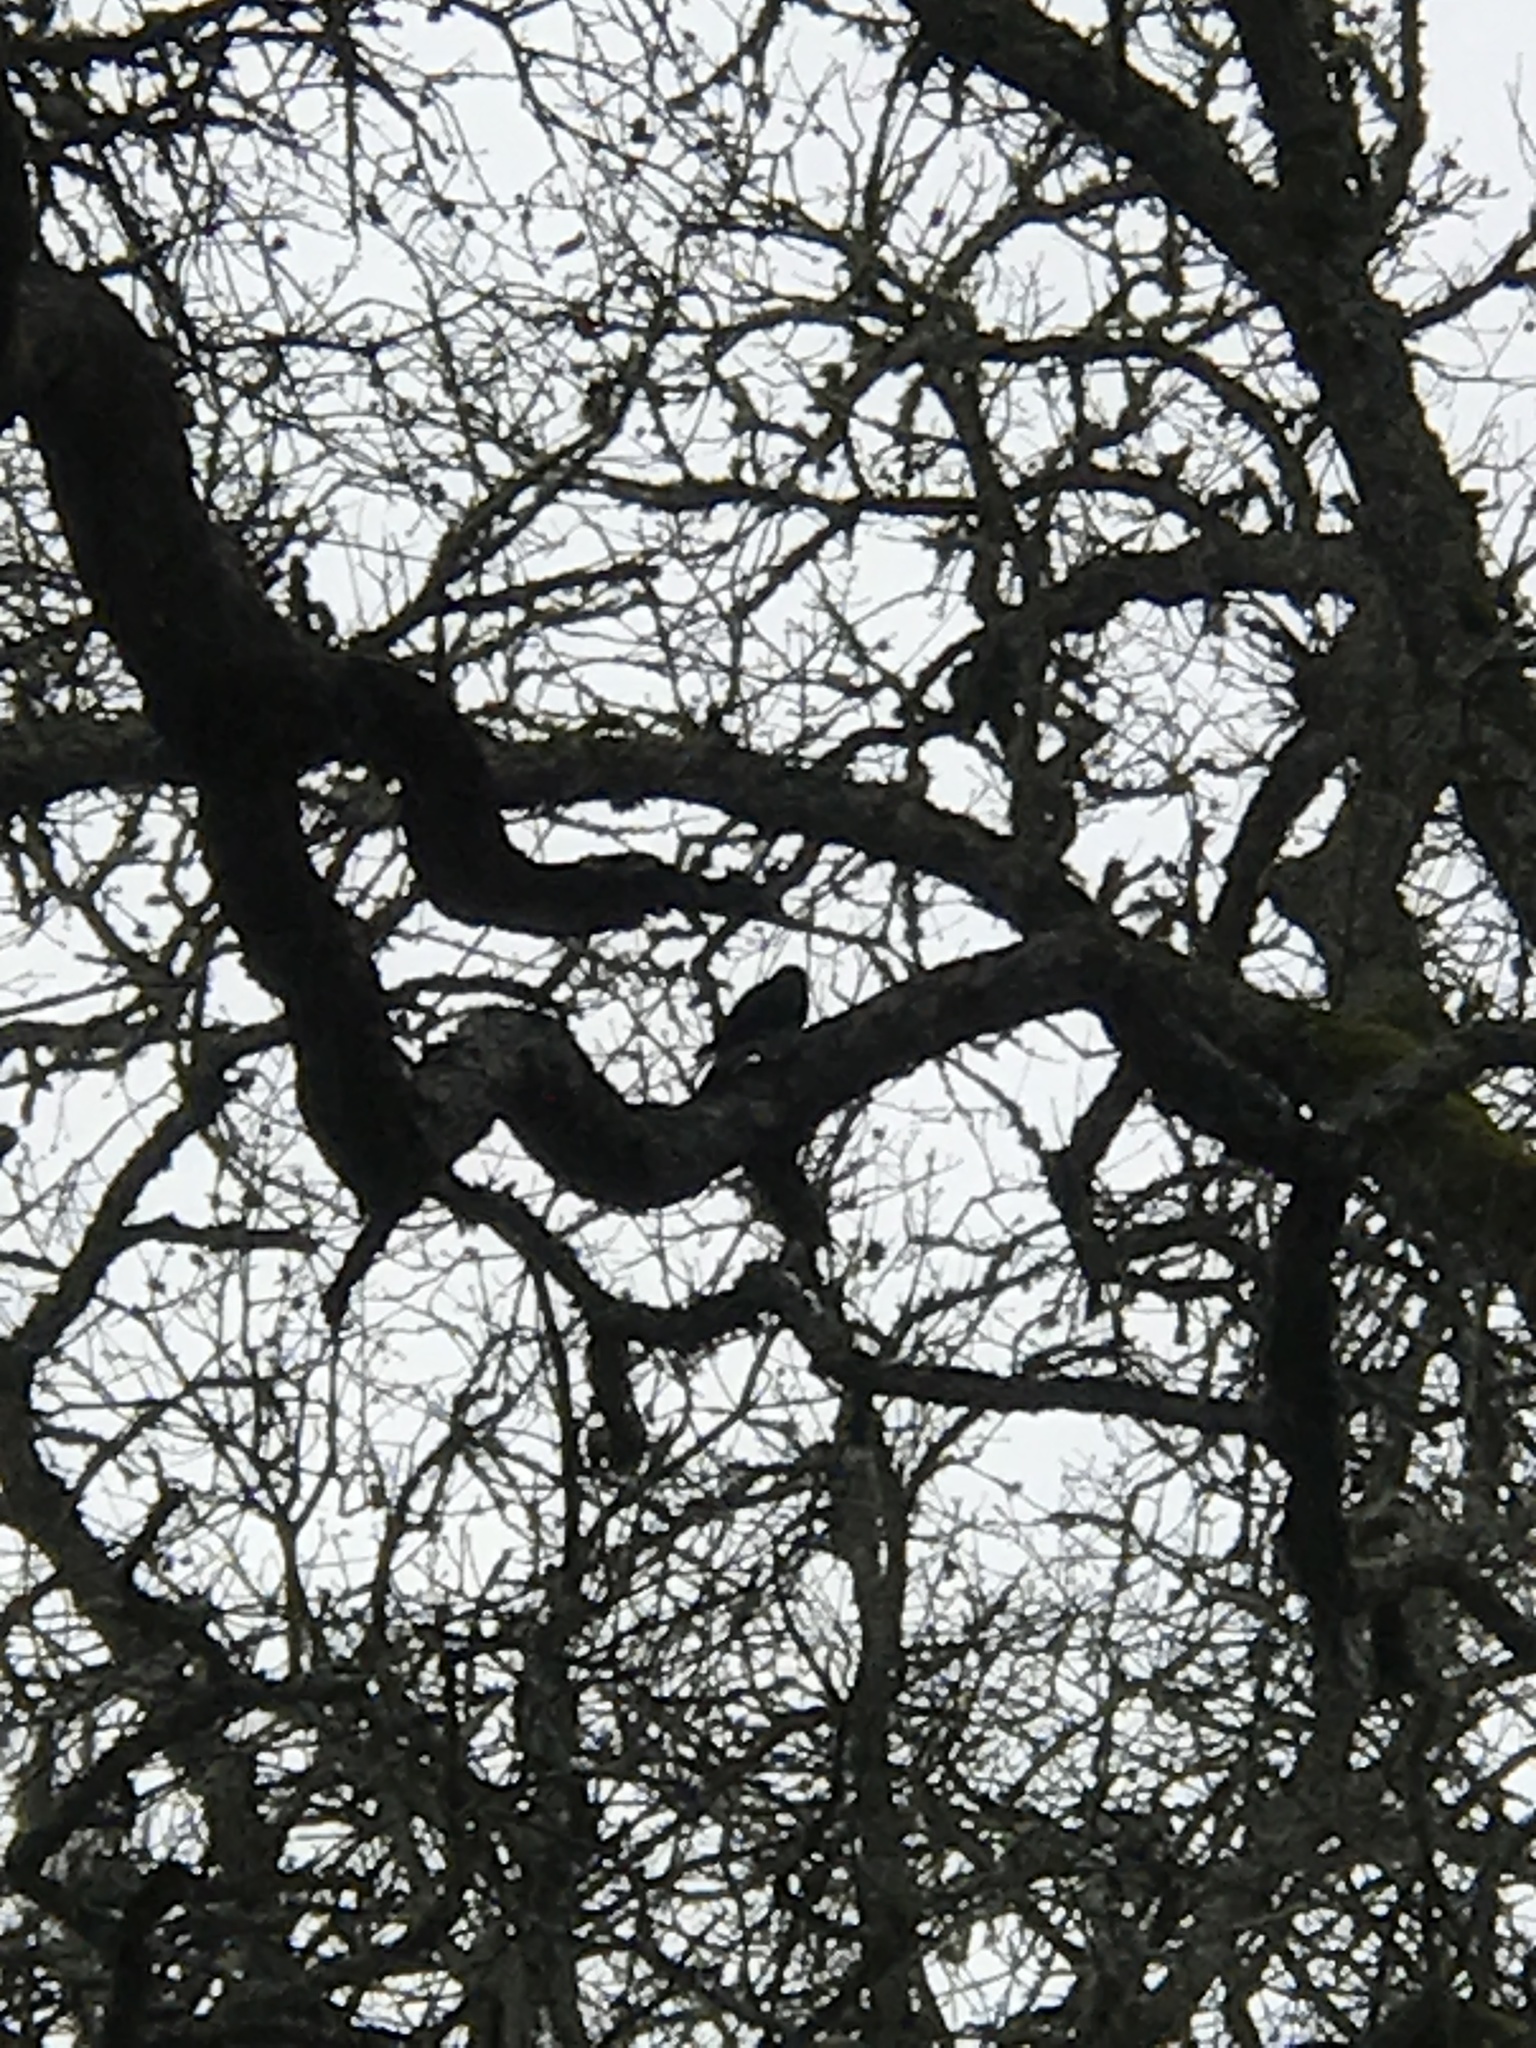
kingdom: Animalia
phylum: Chordata
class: Aves
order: Piciformes
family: Picidae
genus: Melanerpes
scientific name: Melanerpes formicivorus
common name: Acorn woodpecker
